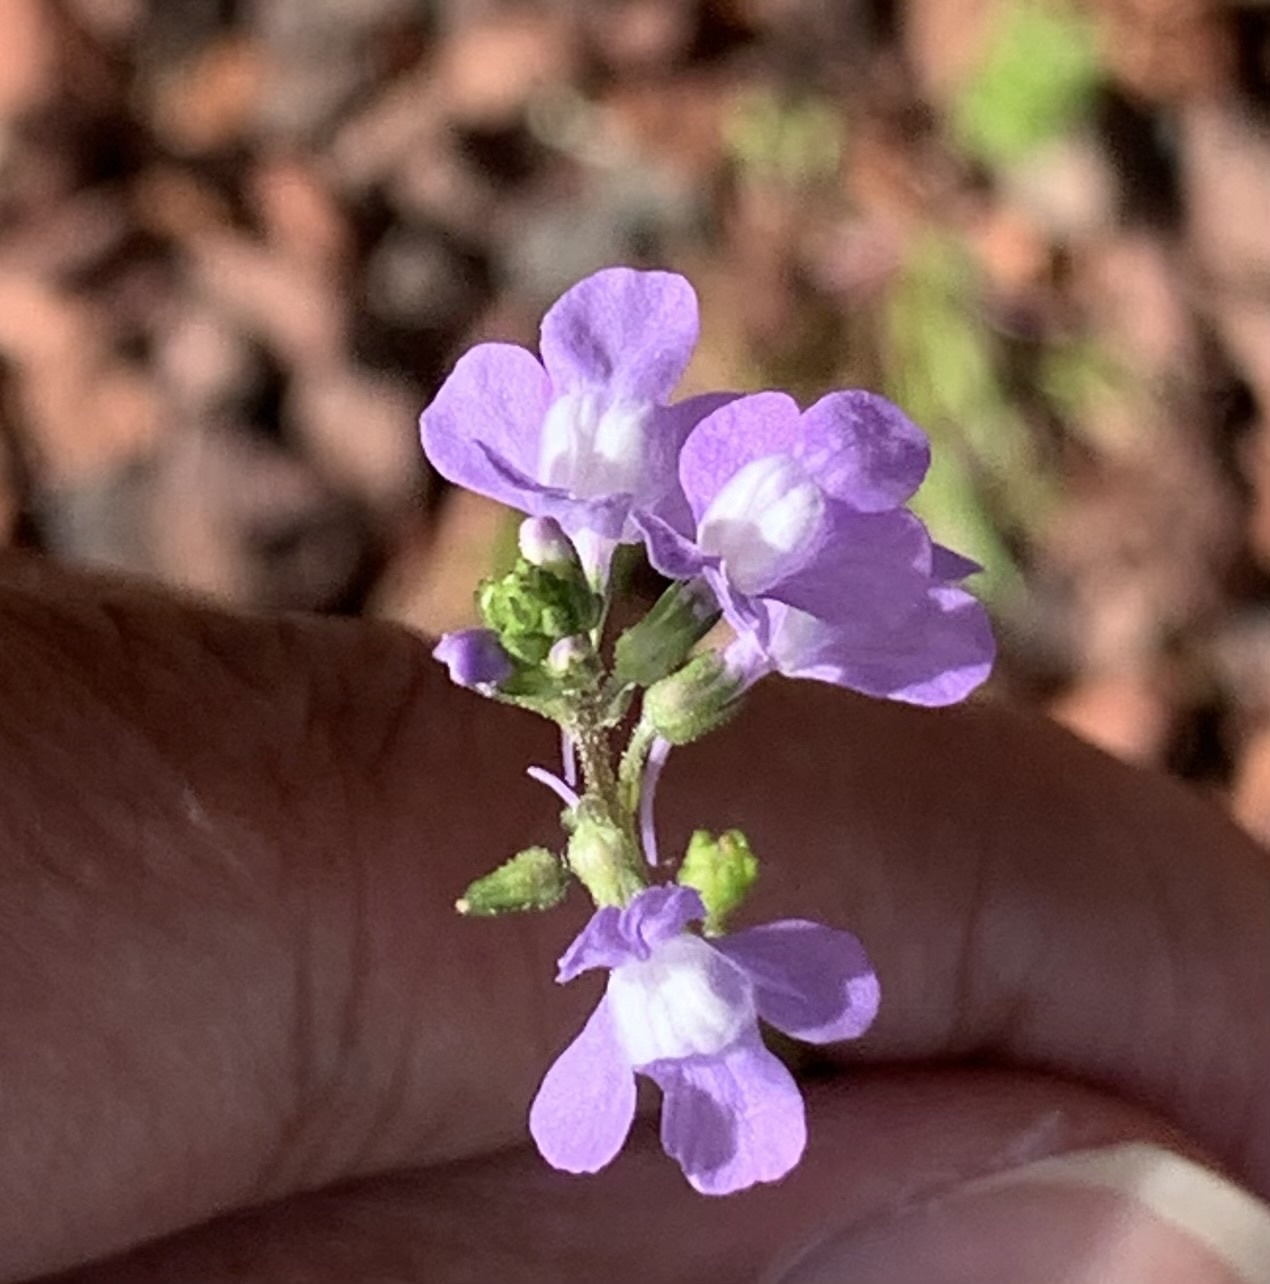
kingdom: Plantae
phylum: Tracheophyta
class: Magnoliopsida
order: Lamiales
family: Plantaginaceae
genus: Nuttallanthus
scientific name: Nuttallanthus canadensis
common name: Blue toadflax
